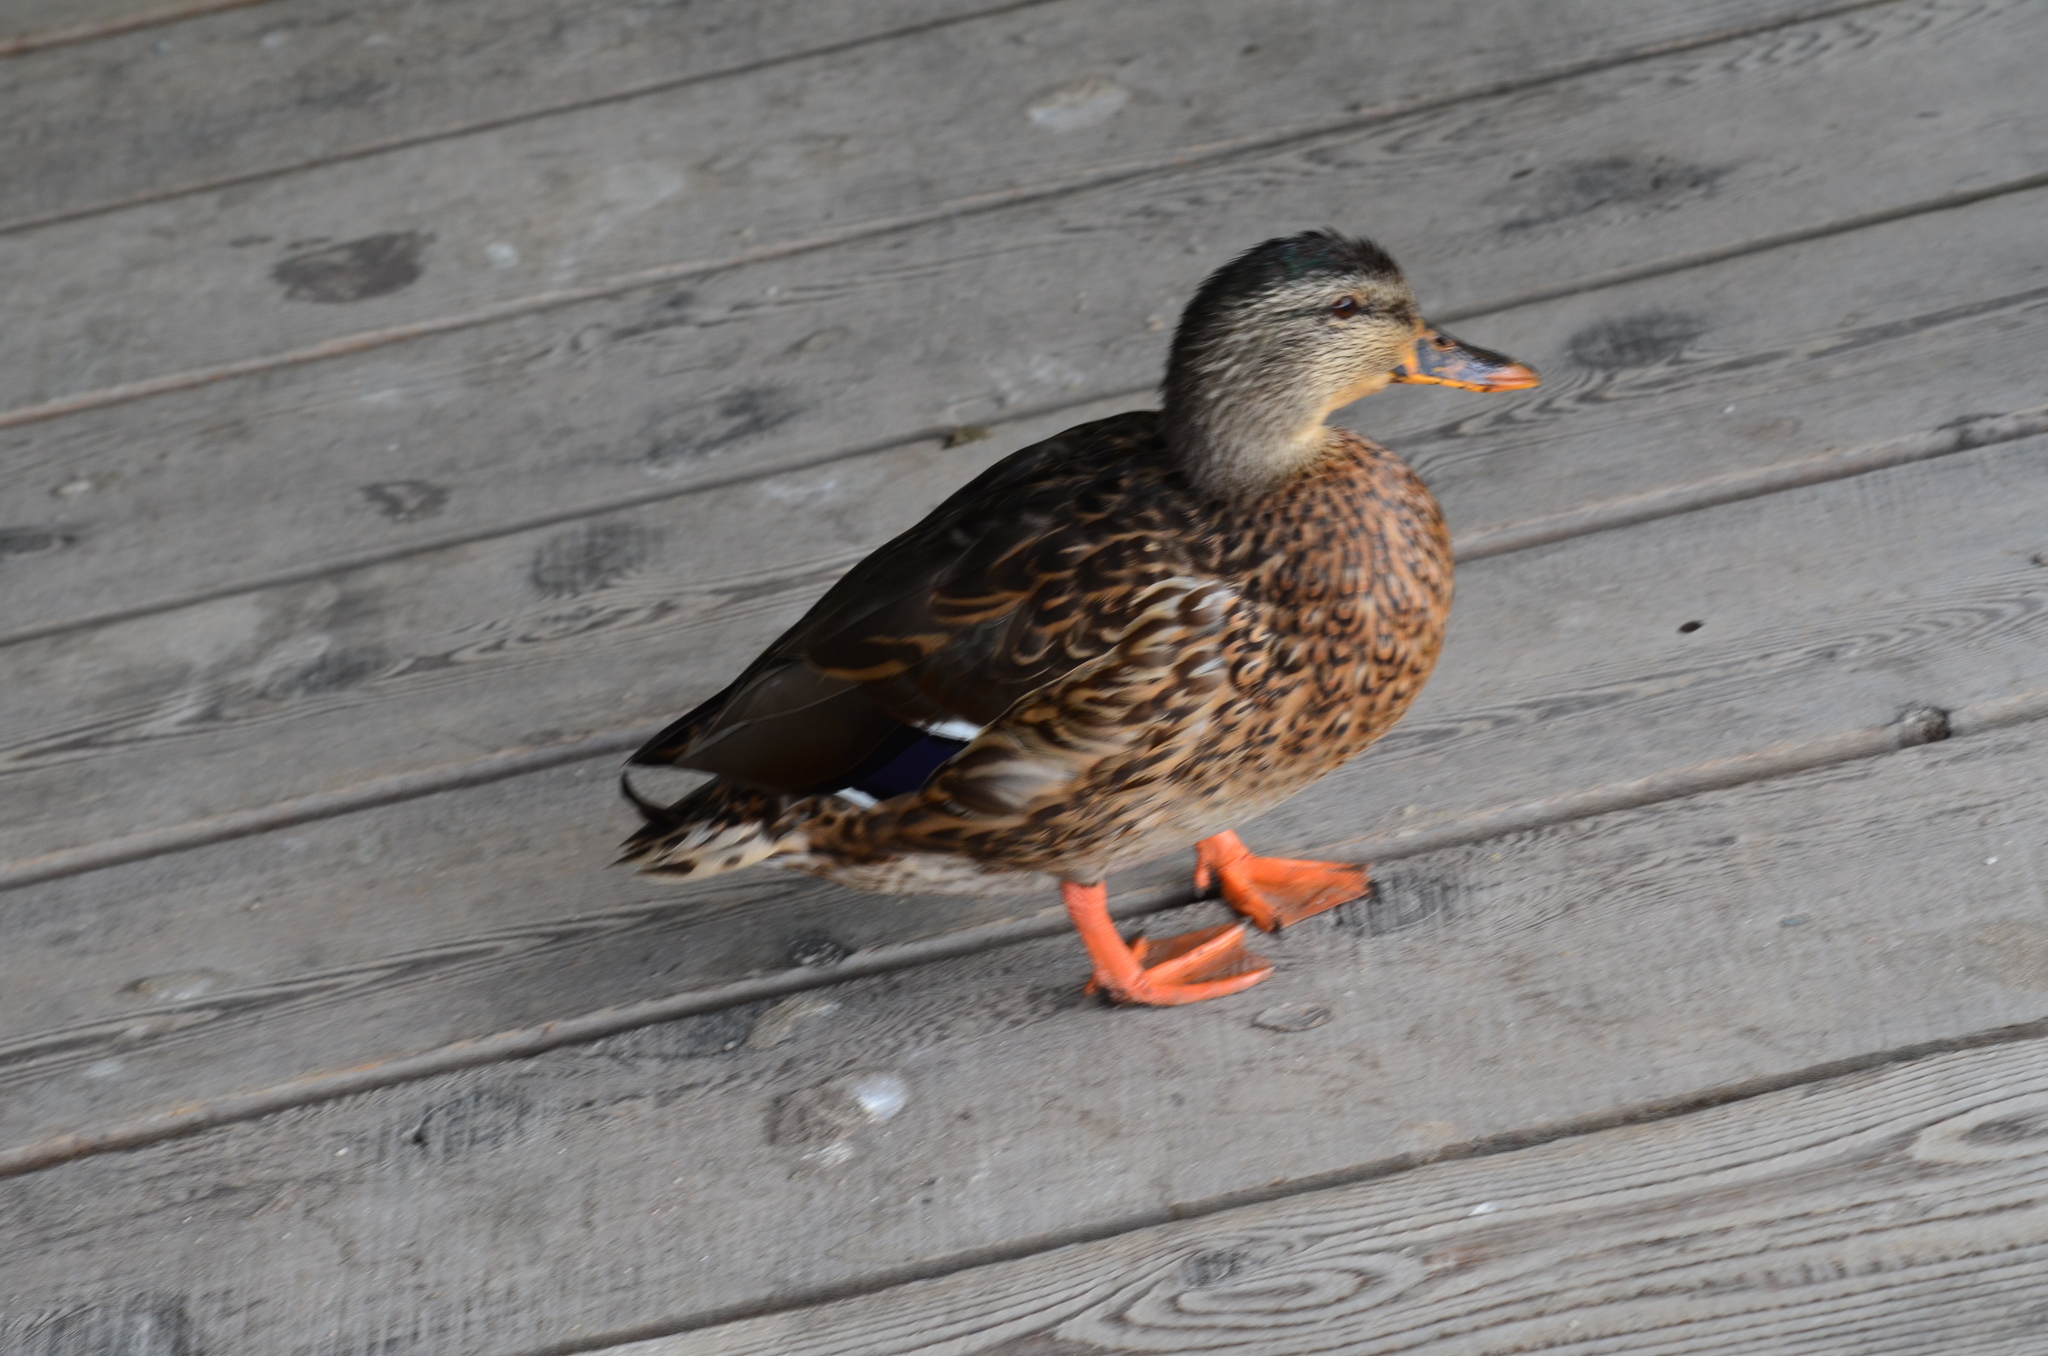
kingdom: Animalia
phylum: Chordata
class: Aves
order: Anseriformes
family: Anatidae
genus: Anas
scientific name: Anas platyrhynchos
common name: Mallard
